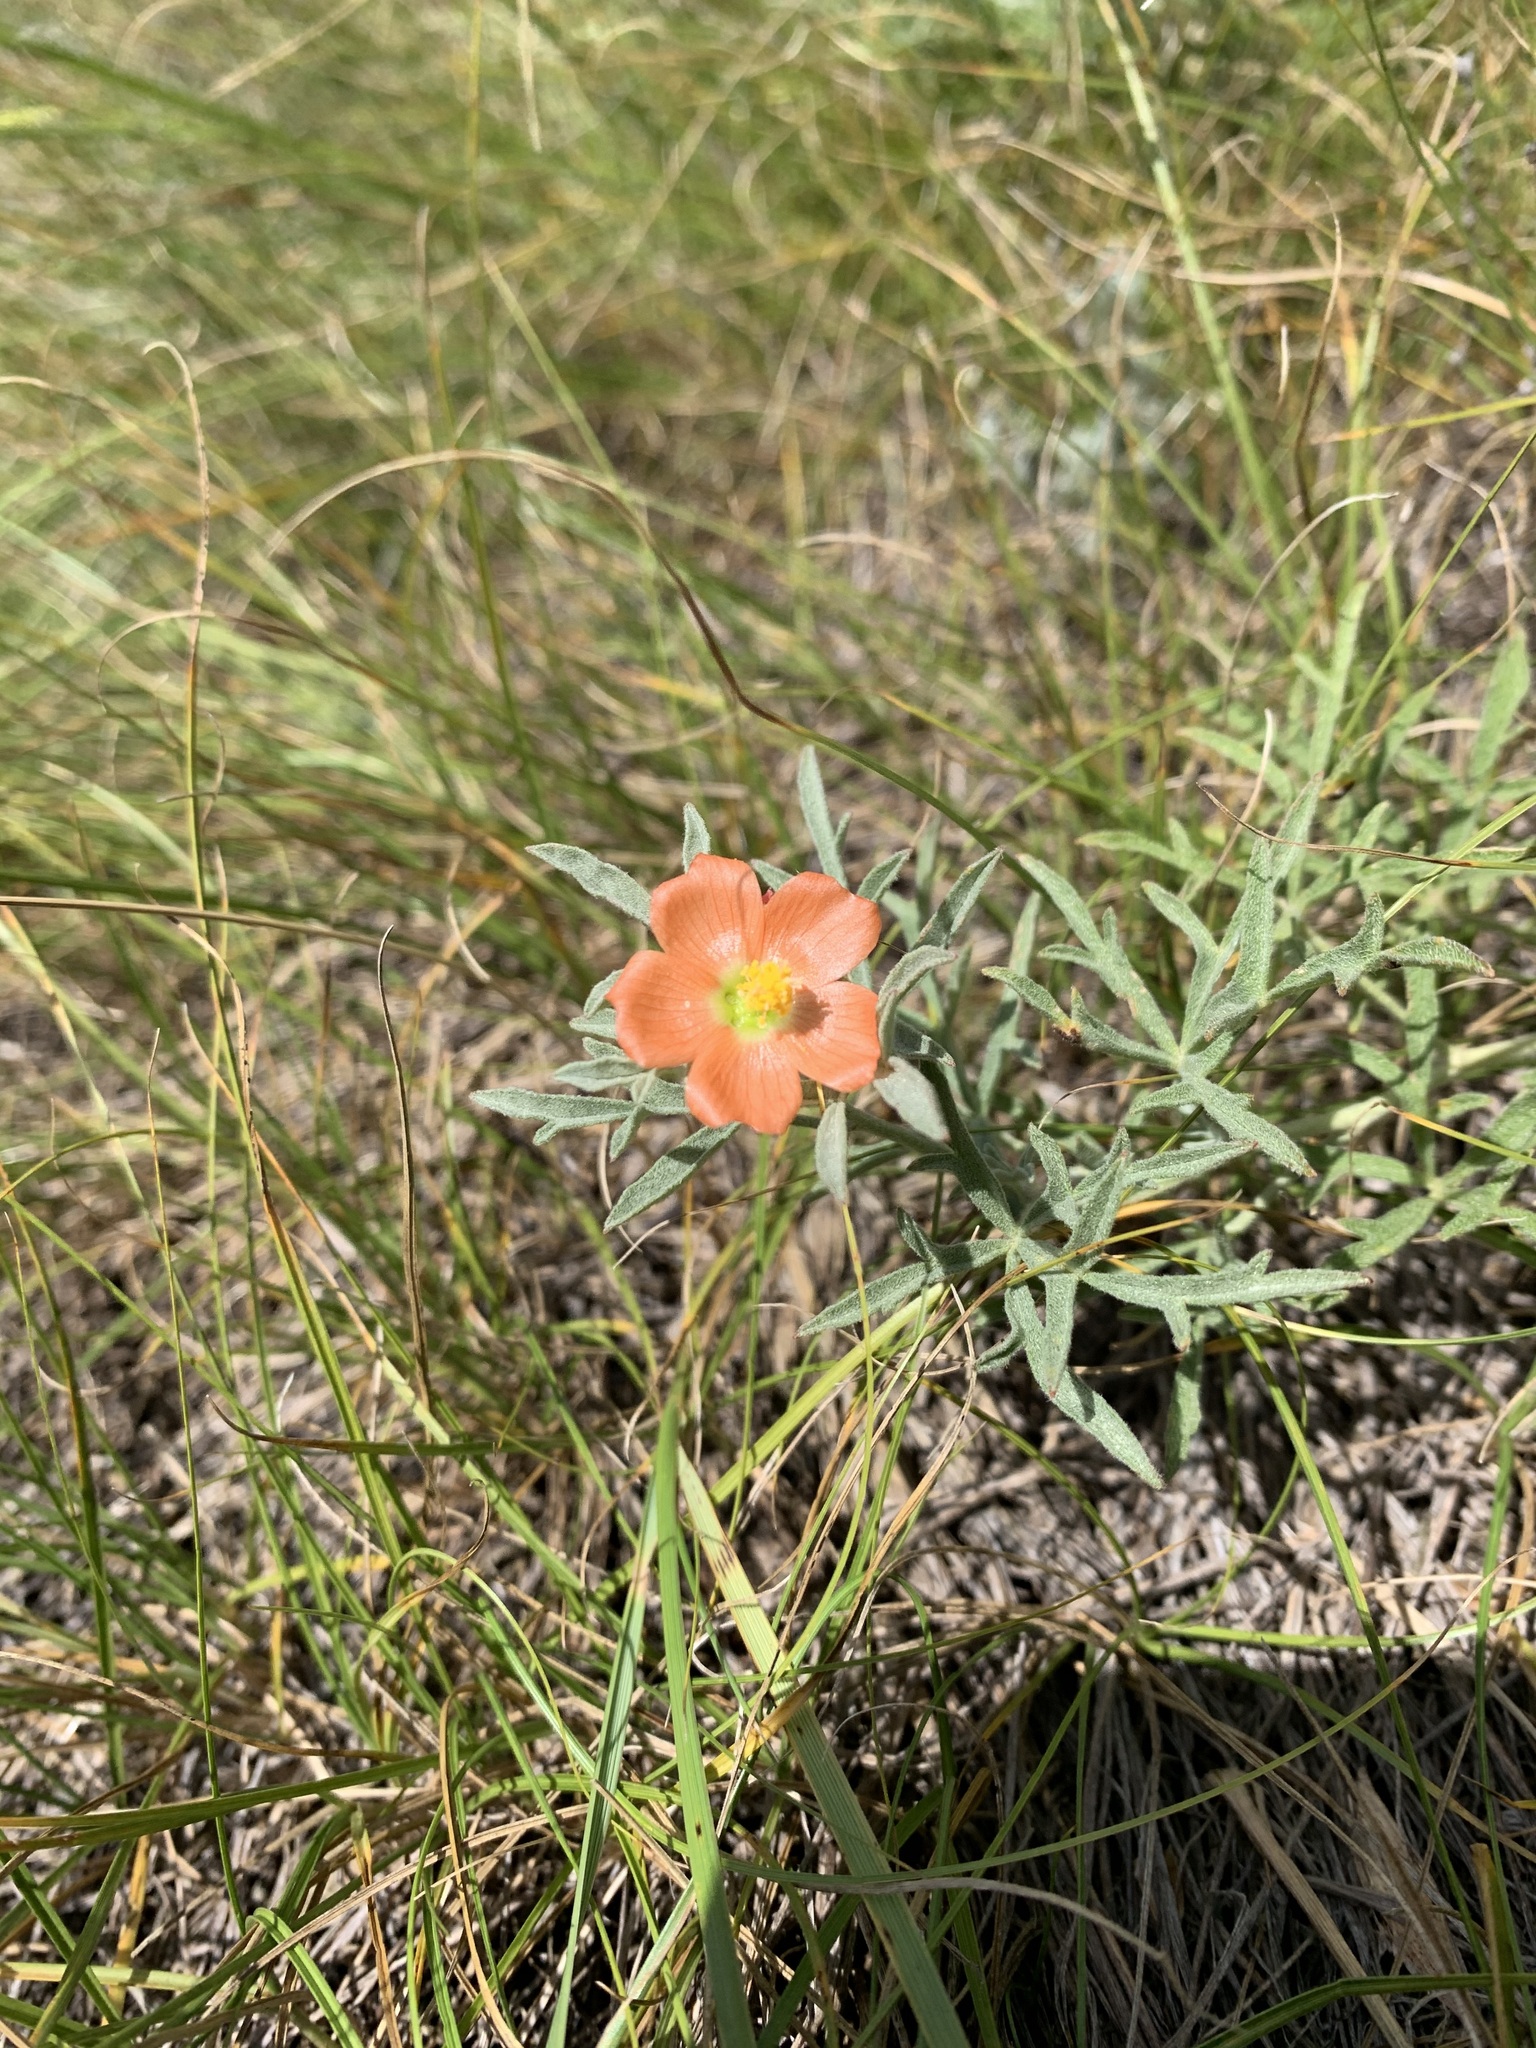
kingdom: Plantae
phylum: Tracheophyta
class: Magnoliopsida
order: Malvales
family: Malvaceae
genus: Sphaeralcea
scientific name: Sphaeralcea coccinea
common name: Moss-rose
